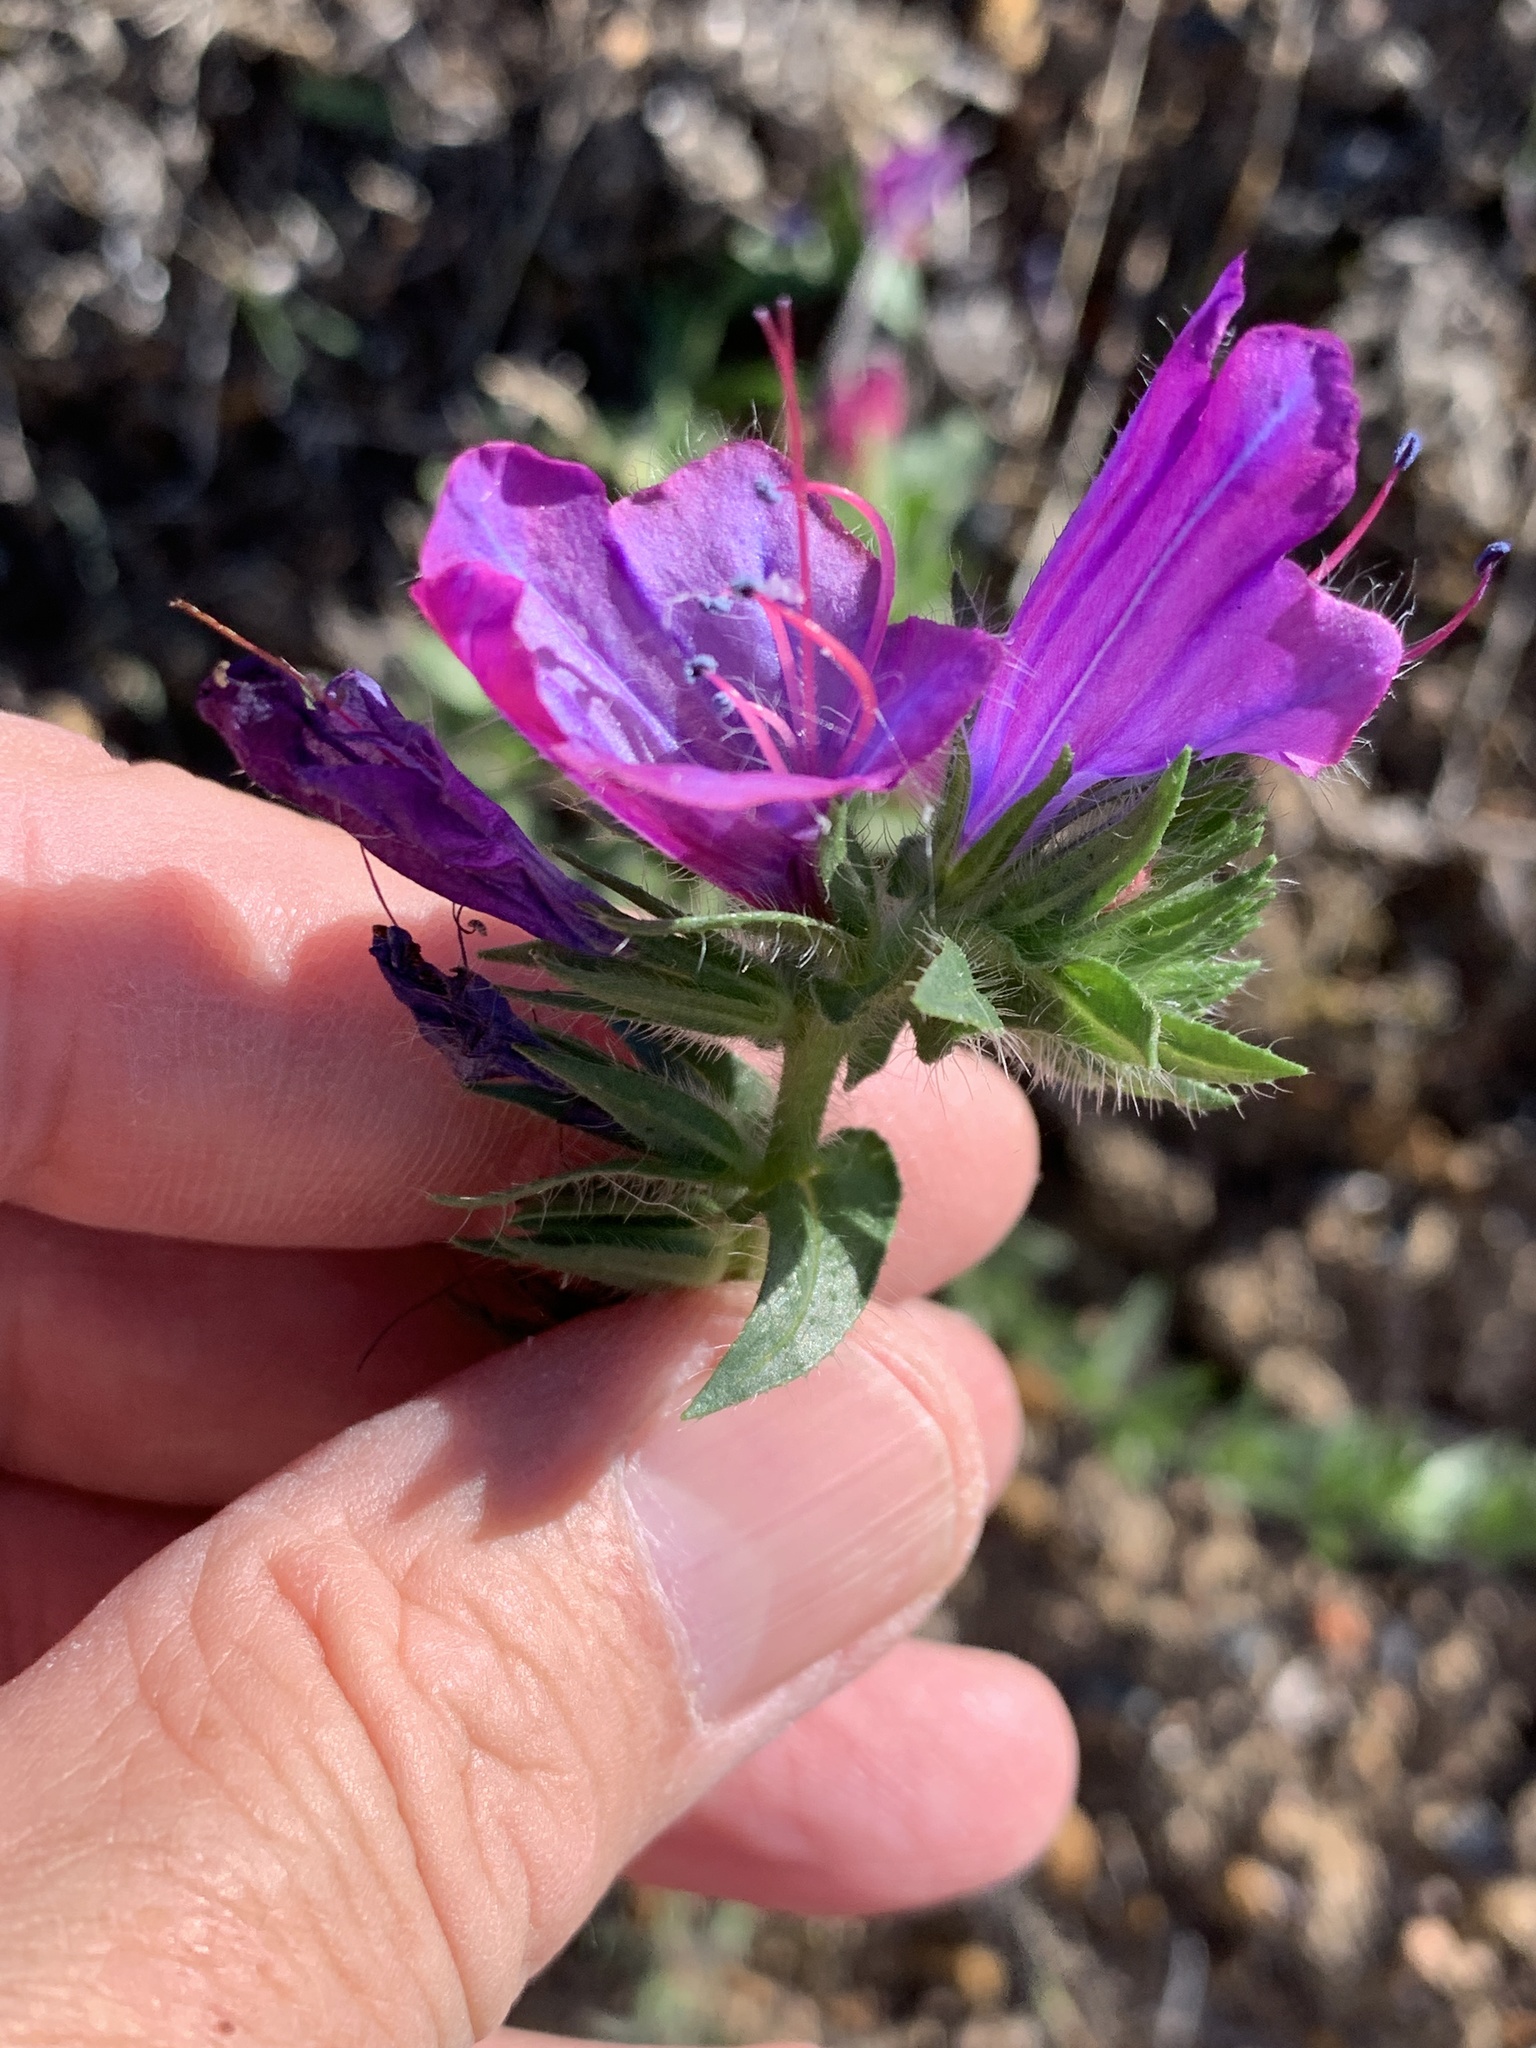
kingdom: Plantae
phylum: Tracheophyta
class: Magnoliopsida
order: Boraginales
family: Boraginaceae
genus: Echium
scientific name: Echium plantagineum
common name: Purple viper's-bugloss
